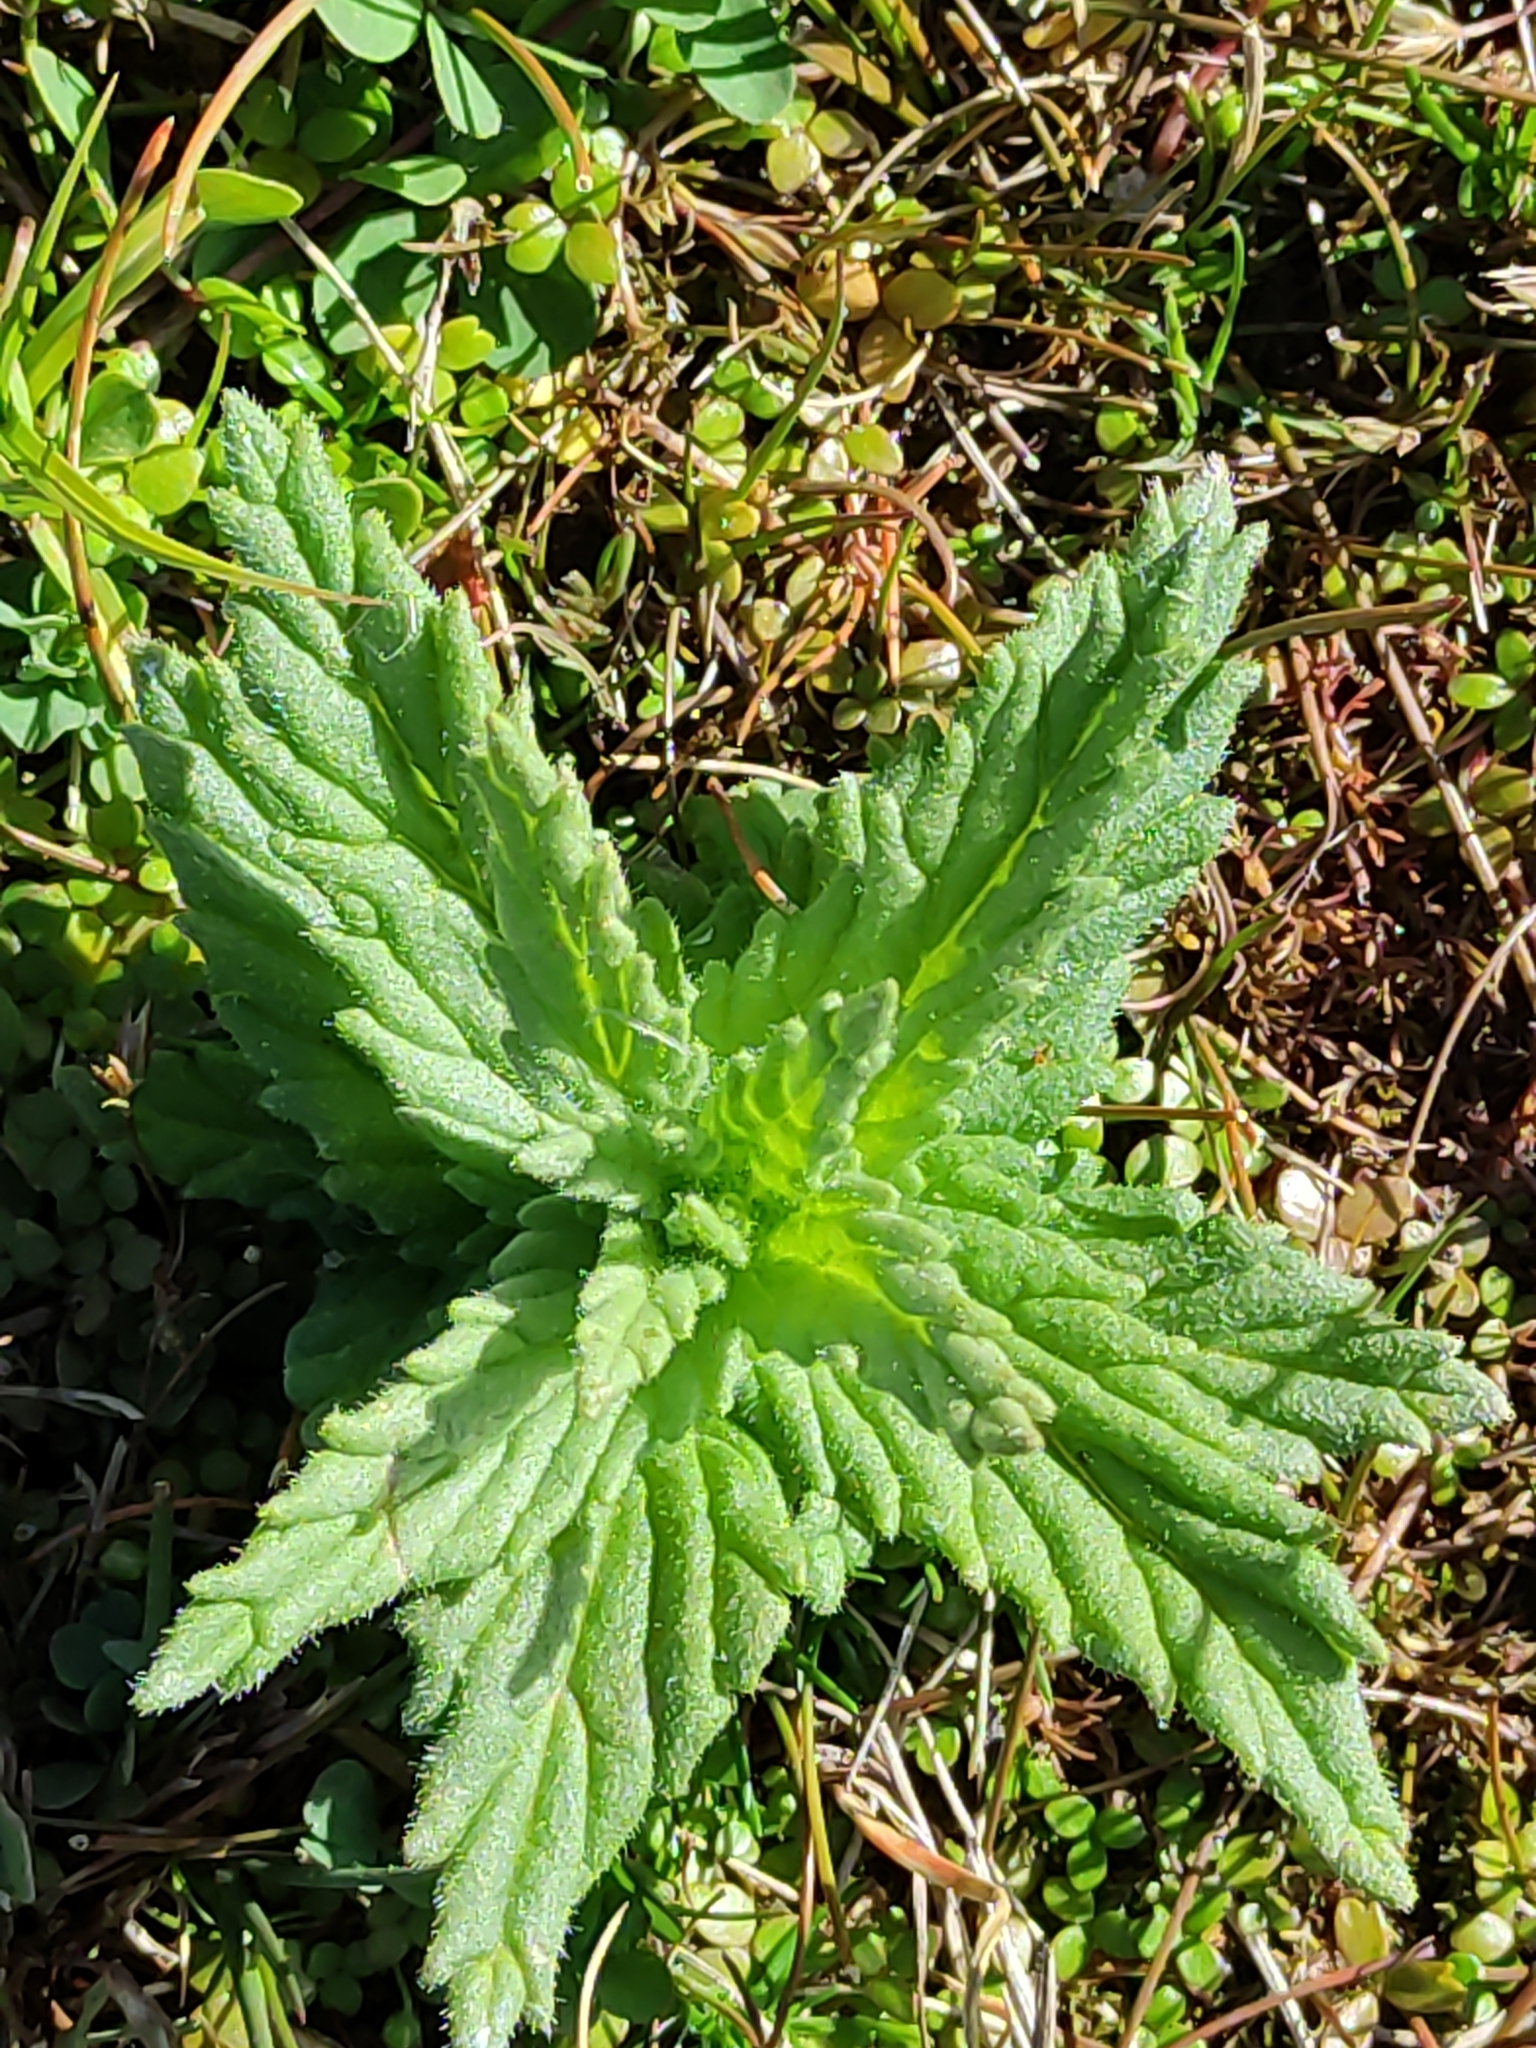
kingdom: Plantae
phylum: Tracheophyta
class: Magnoliopsida
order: Lamiales
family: Orobanchaceae
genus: Bellardia
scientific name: Bellardia viscosa
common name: Sticky parentucellia
